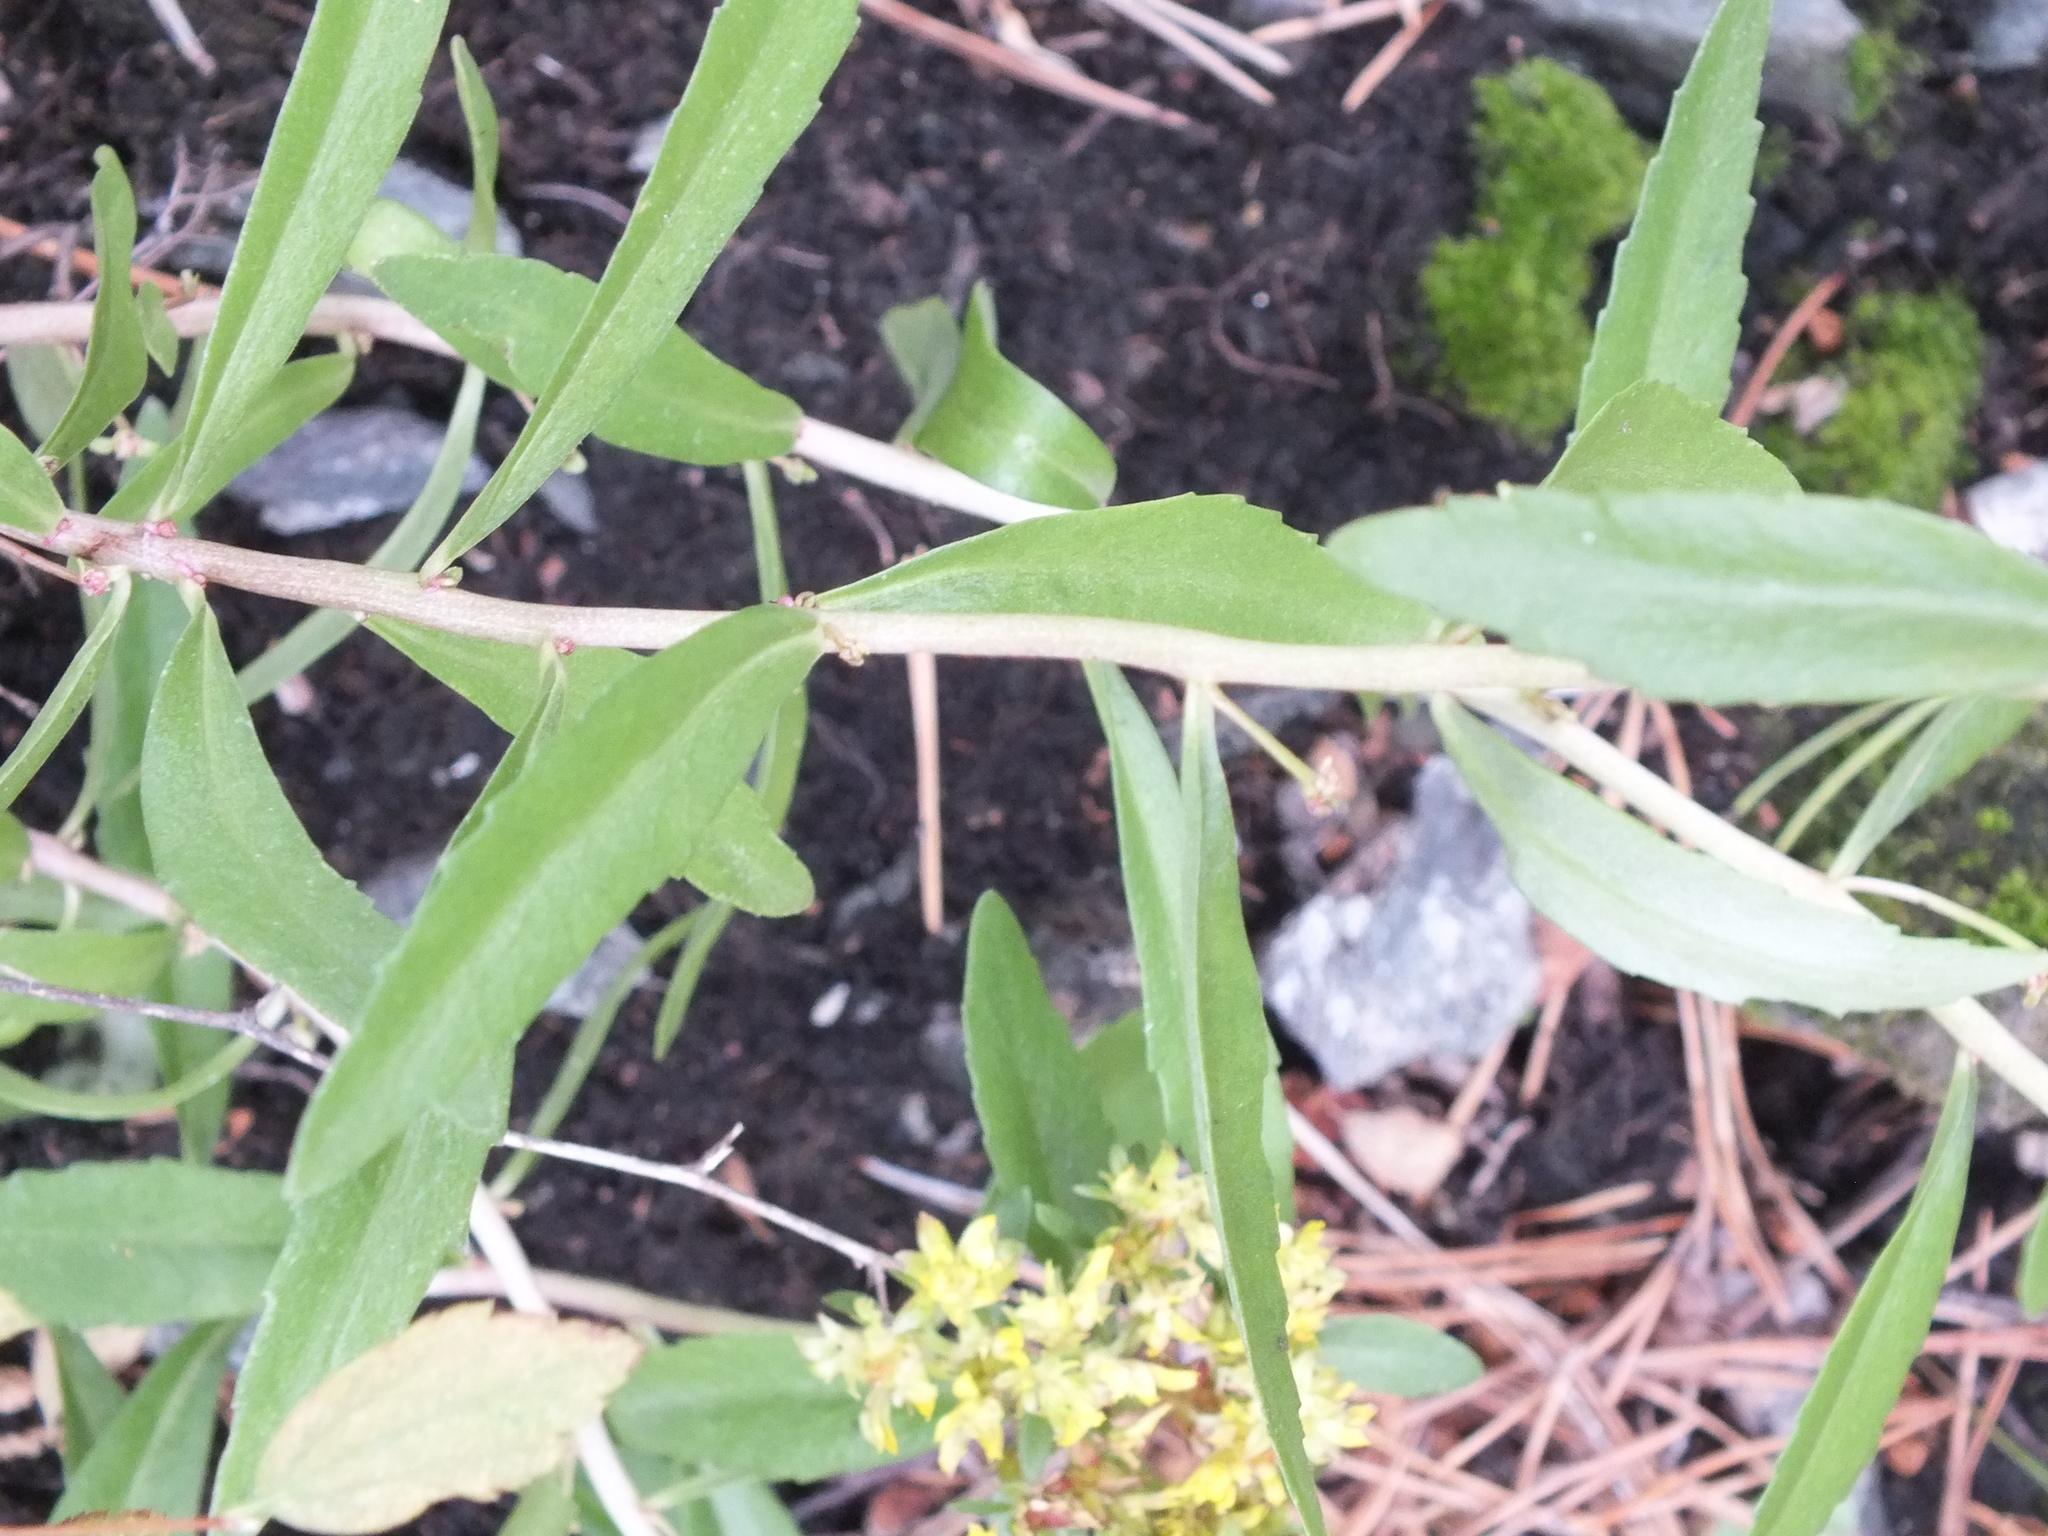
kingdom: Plantae
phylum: Tracheophyta
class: Magnoliopsida
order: Saxifragales
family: Crassulaceae
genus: Phedimus
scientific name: Phedimus aizoon
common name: Orpin aizoon
